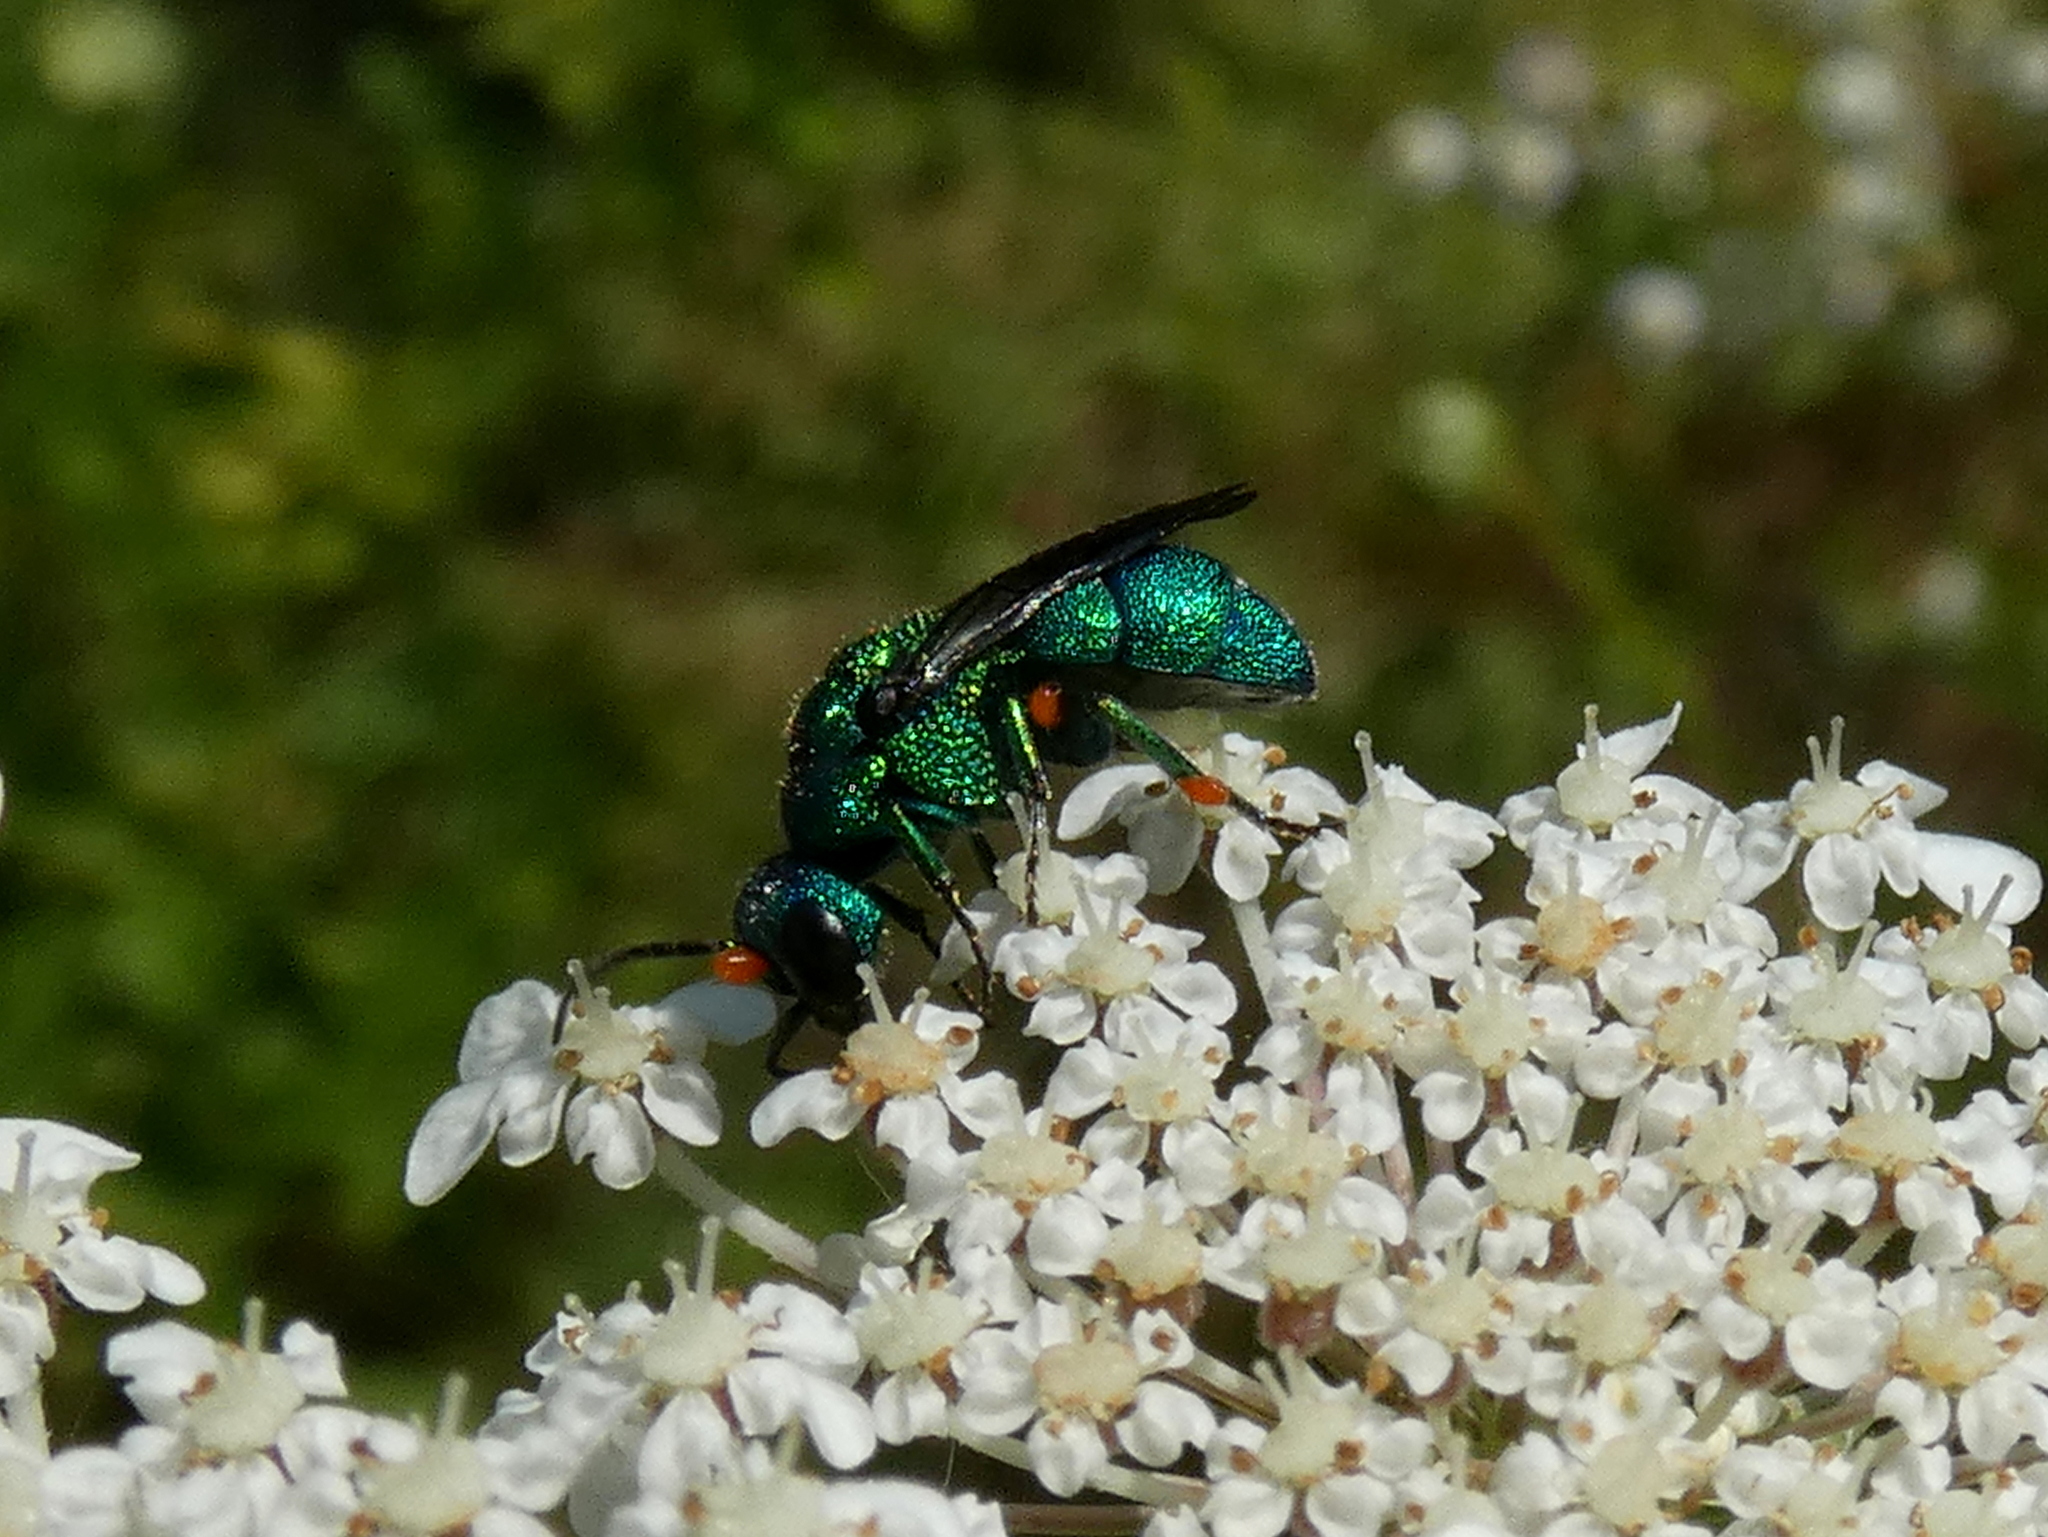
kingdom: Animalia
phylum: Arthropoda
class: Insecta
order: Hymenoptera
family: Chrysididae
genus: Holopyga
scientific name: Holopyga
